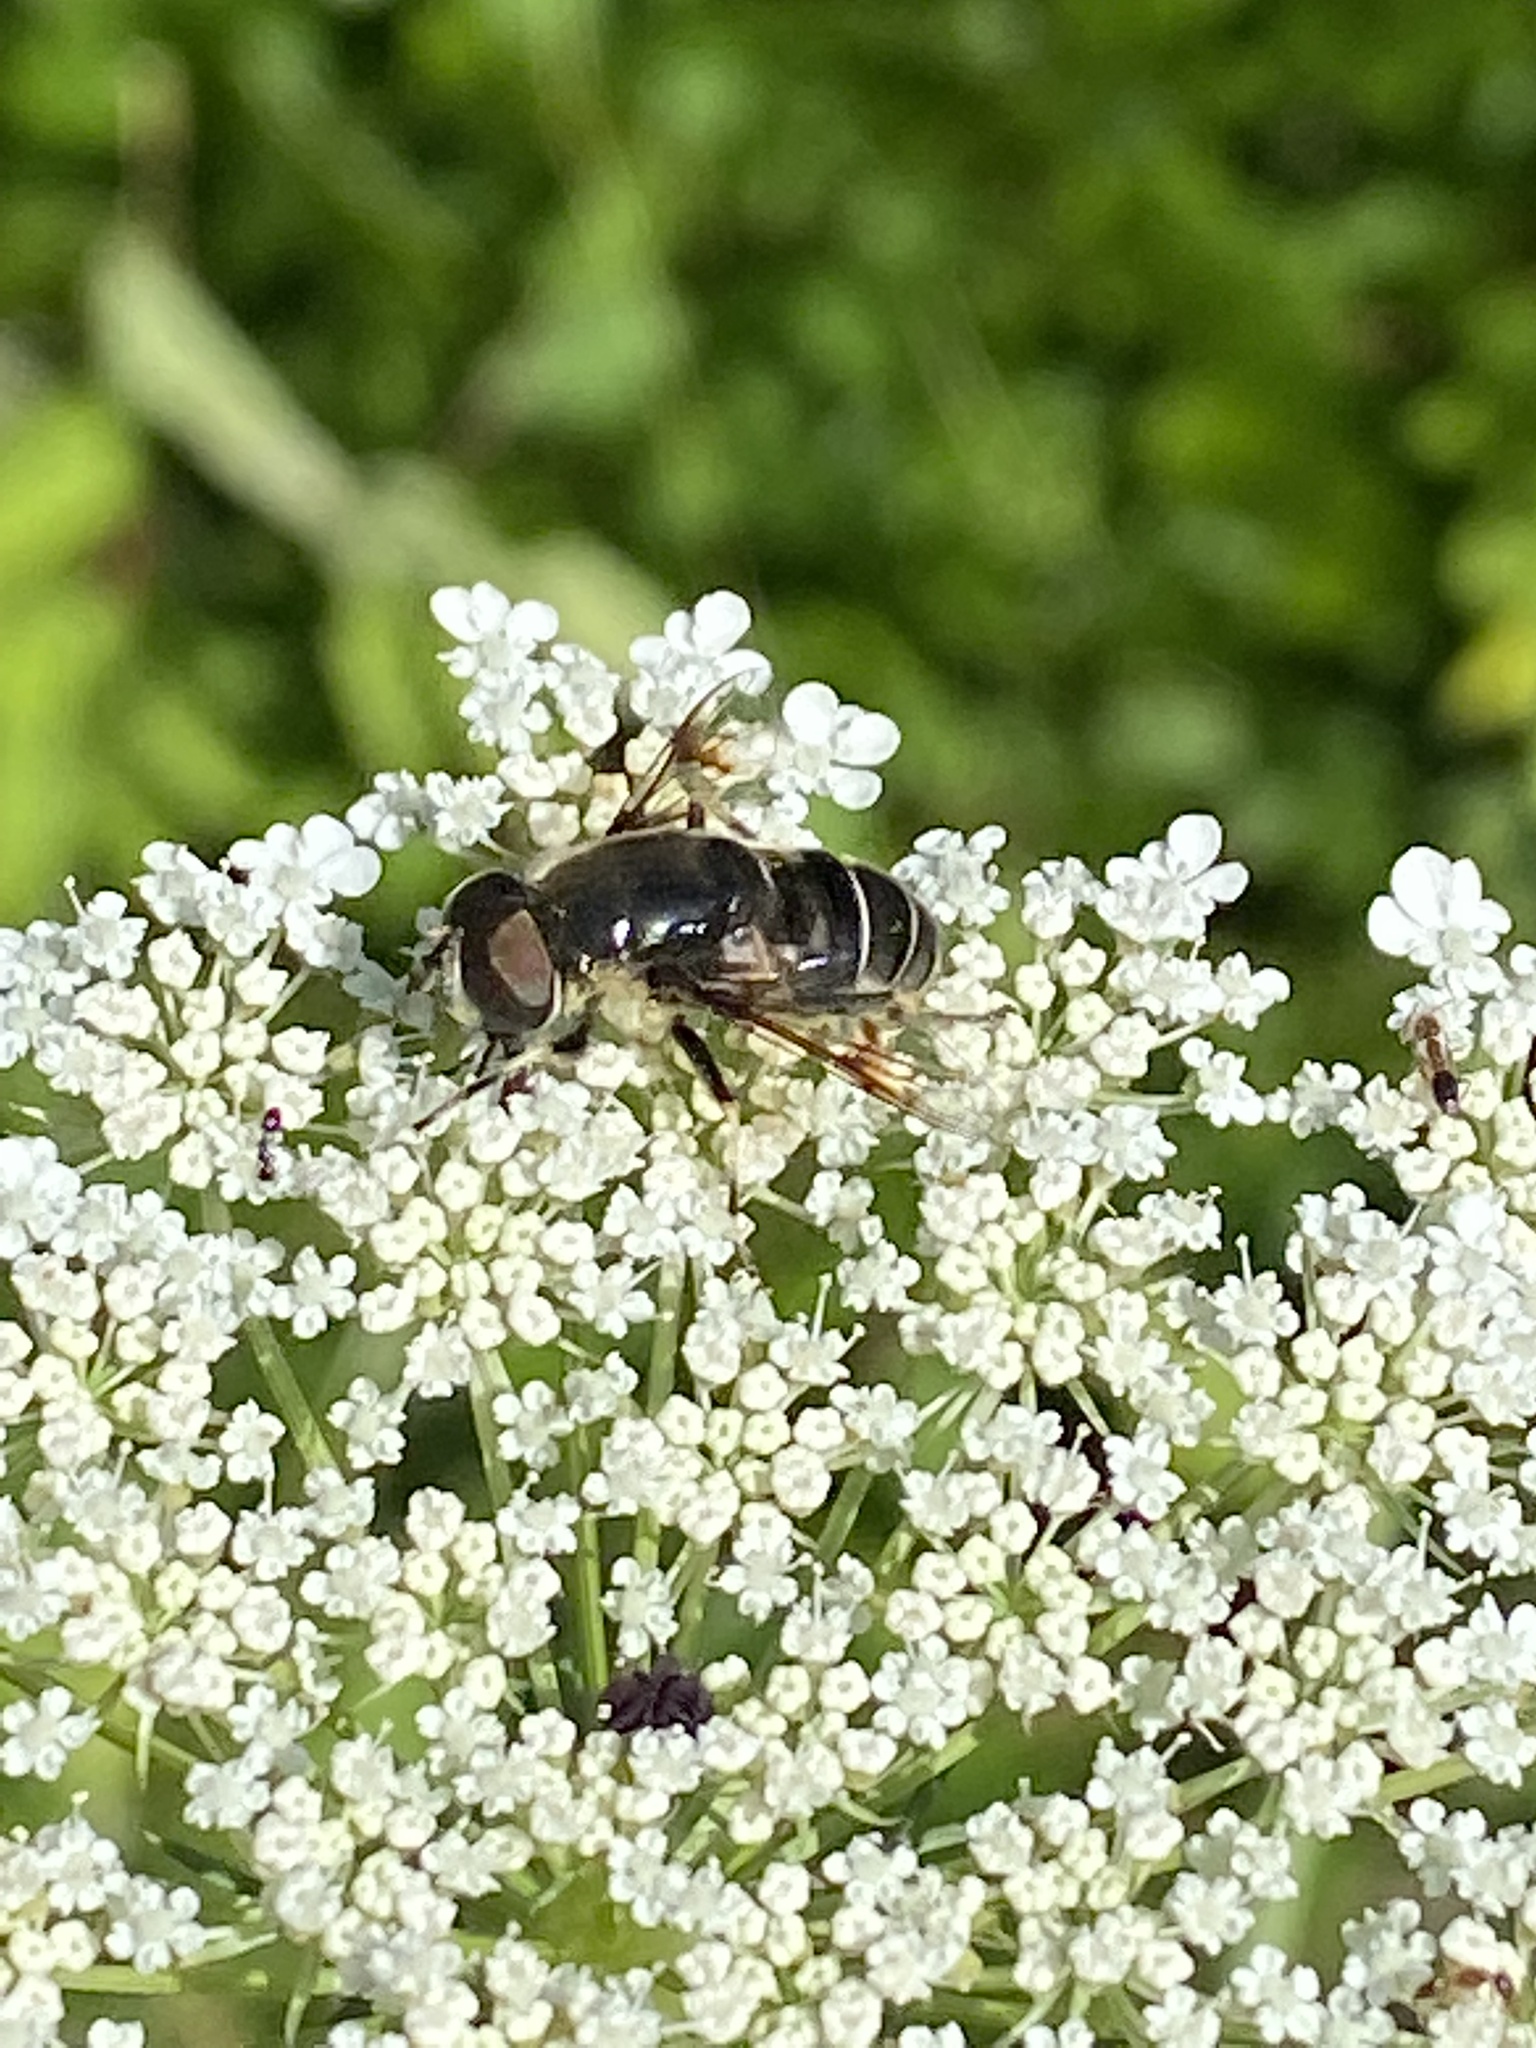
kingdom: Animalia
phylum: Arthropoda
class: Insecta
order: Diptera
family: Syrphidae
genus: Eristalis
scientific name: Eristalis saxorum
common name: Blue-polished drone fly
